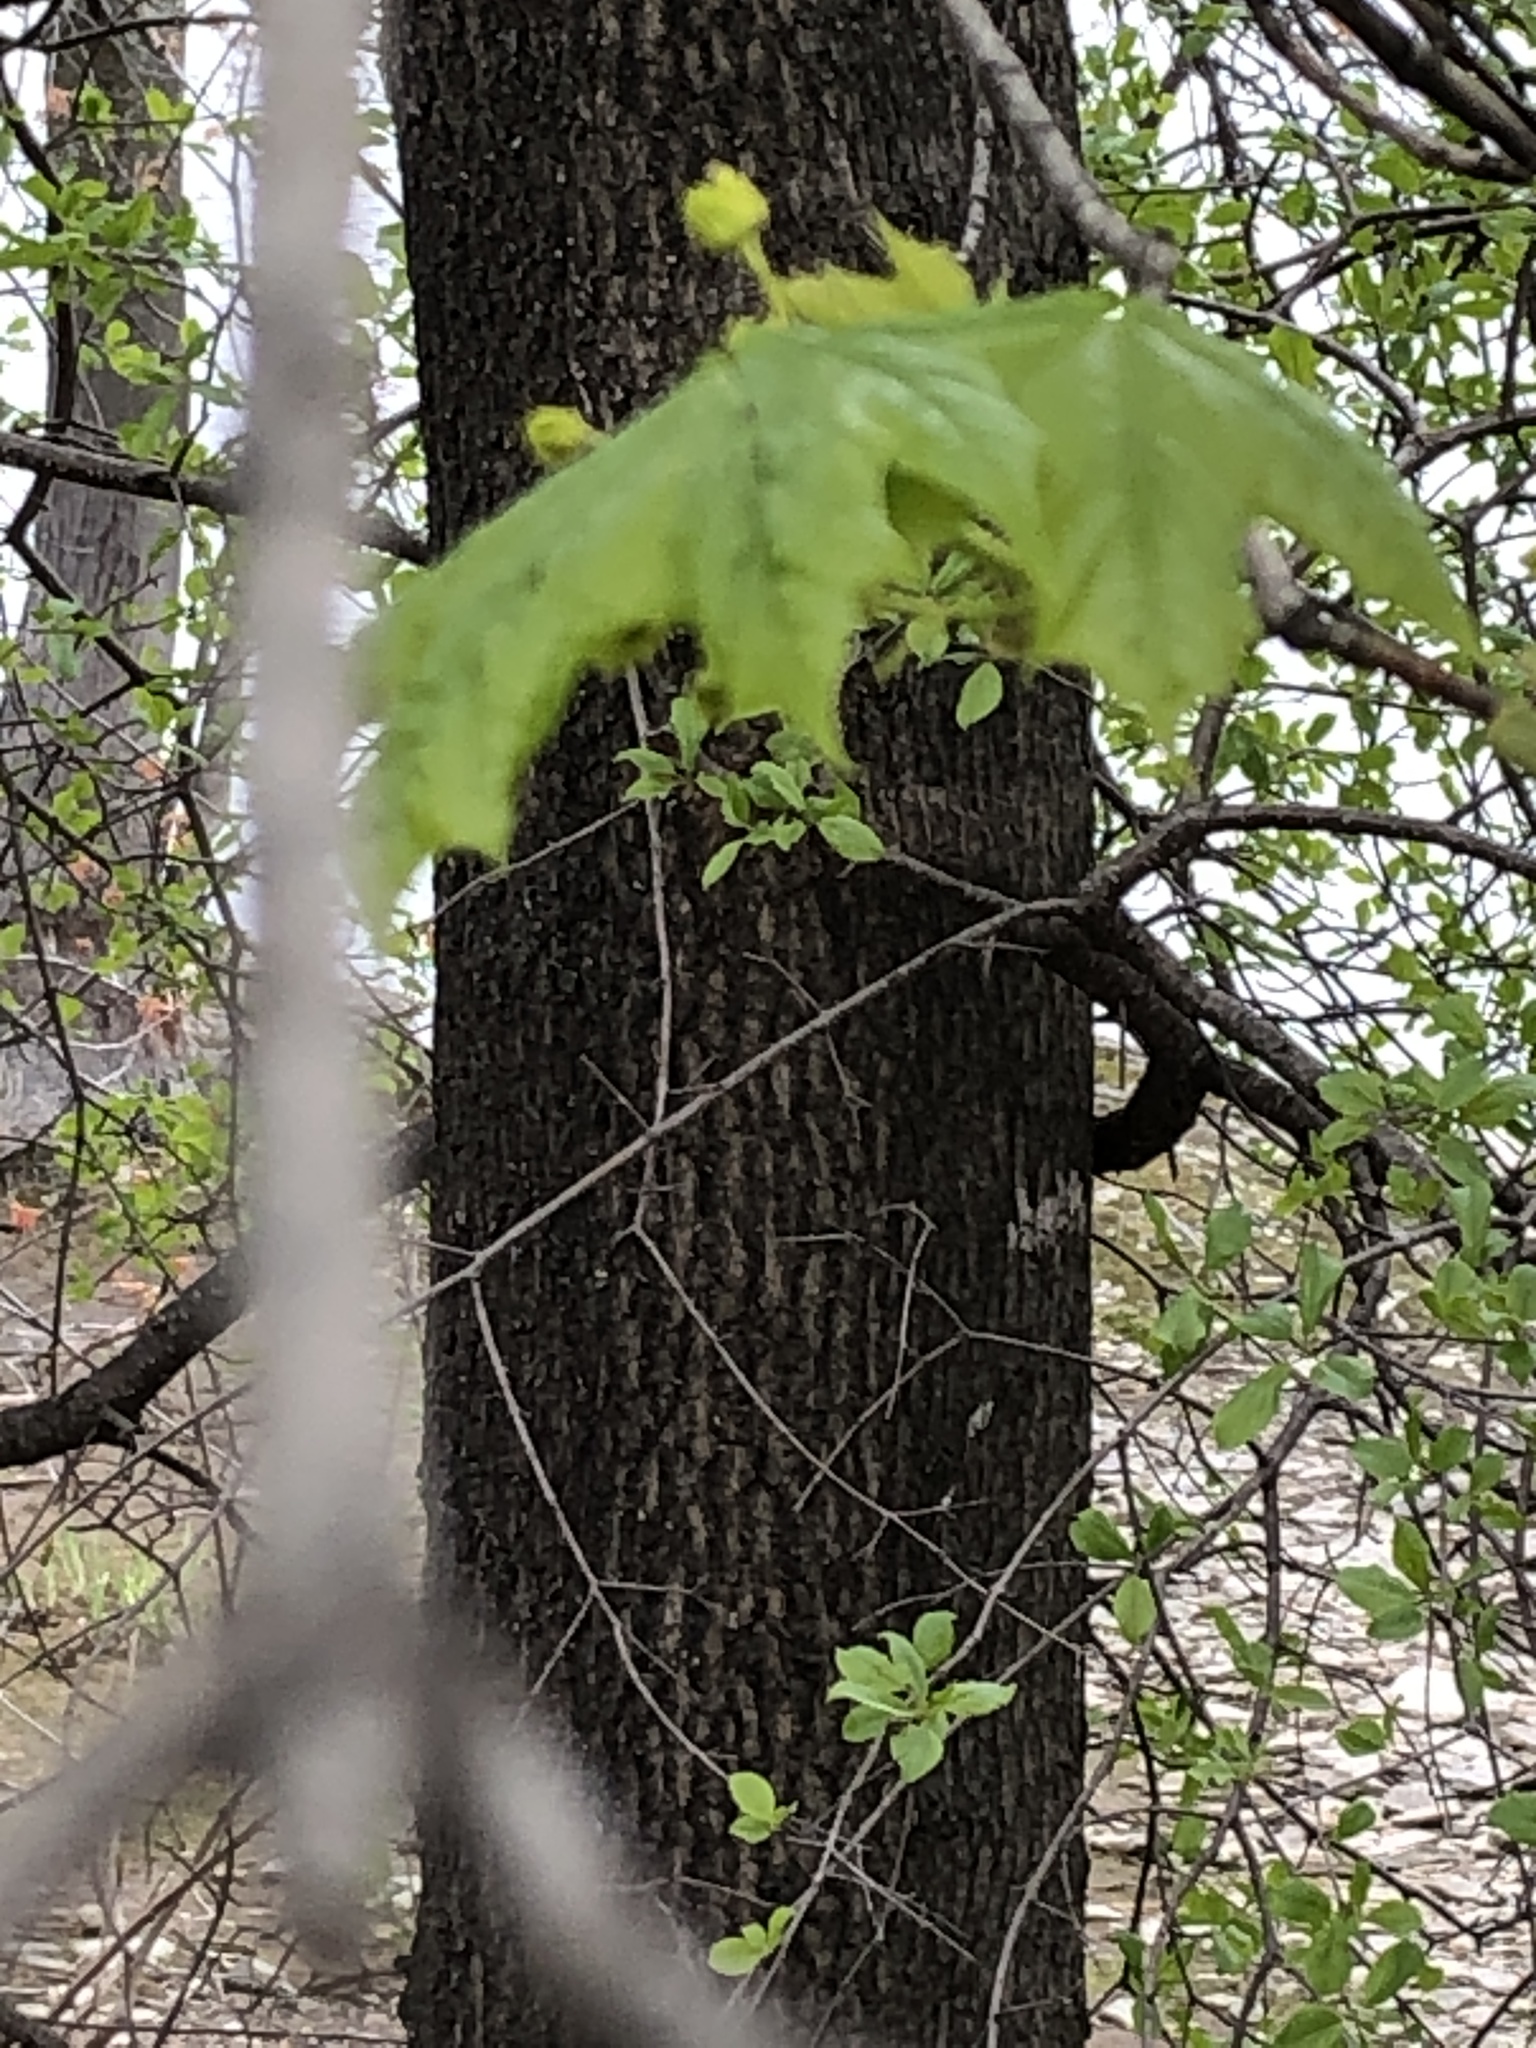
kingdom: Plantae
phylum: Tracheophyta
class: Magnoliopsida
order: Sapindales
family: Sapindaceae
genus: Acer
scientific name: Acer platanoides
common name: Norway maple
